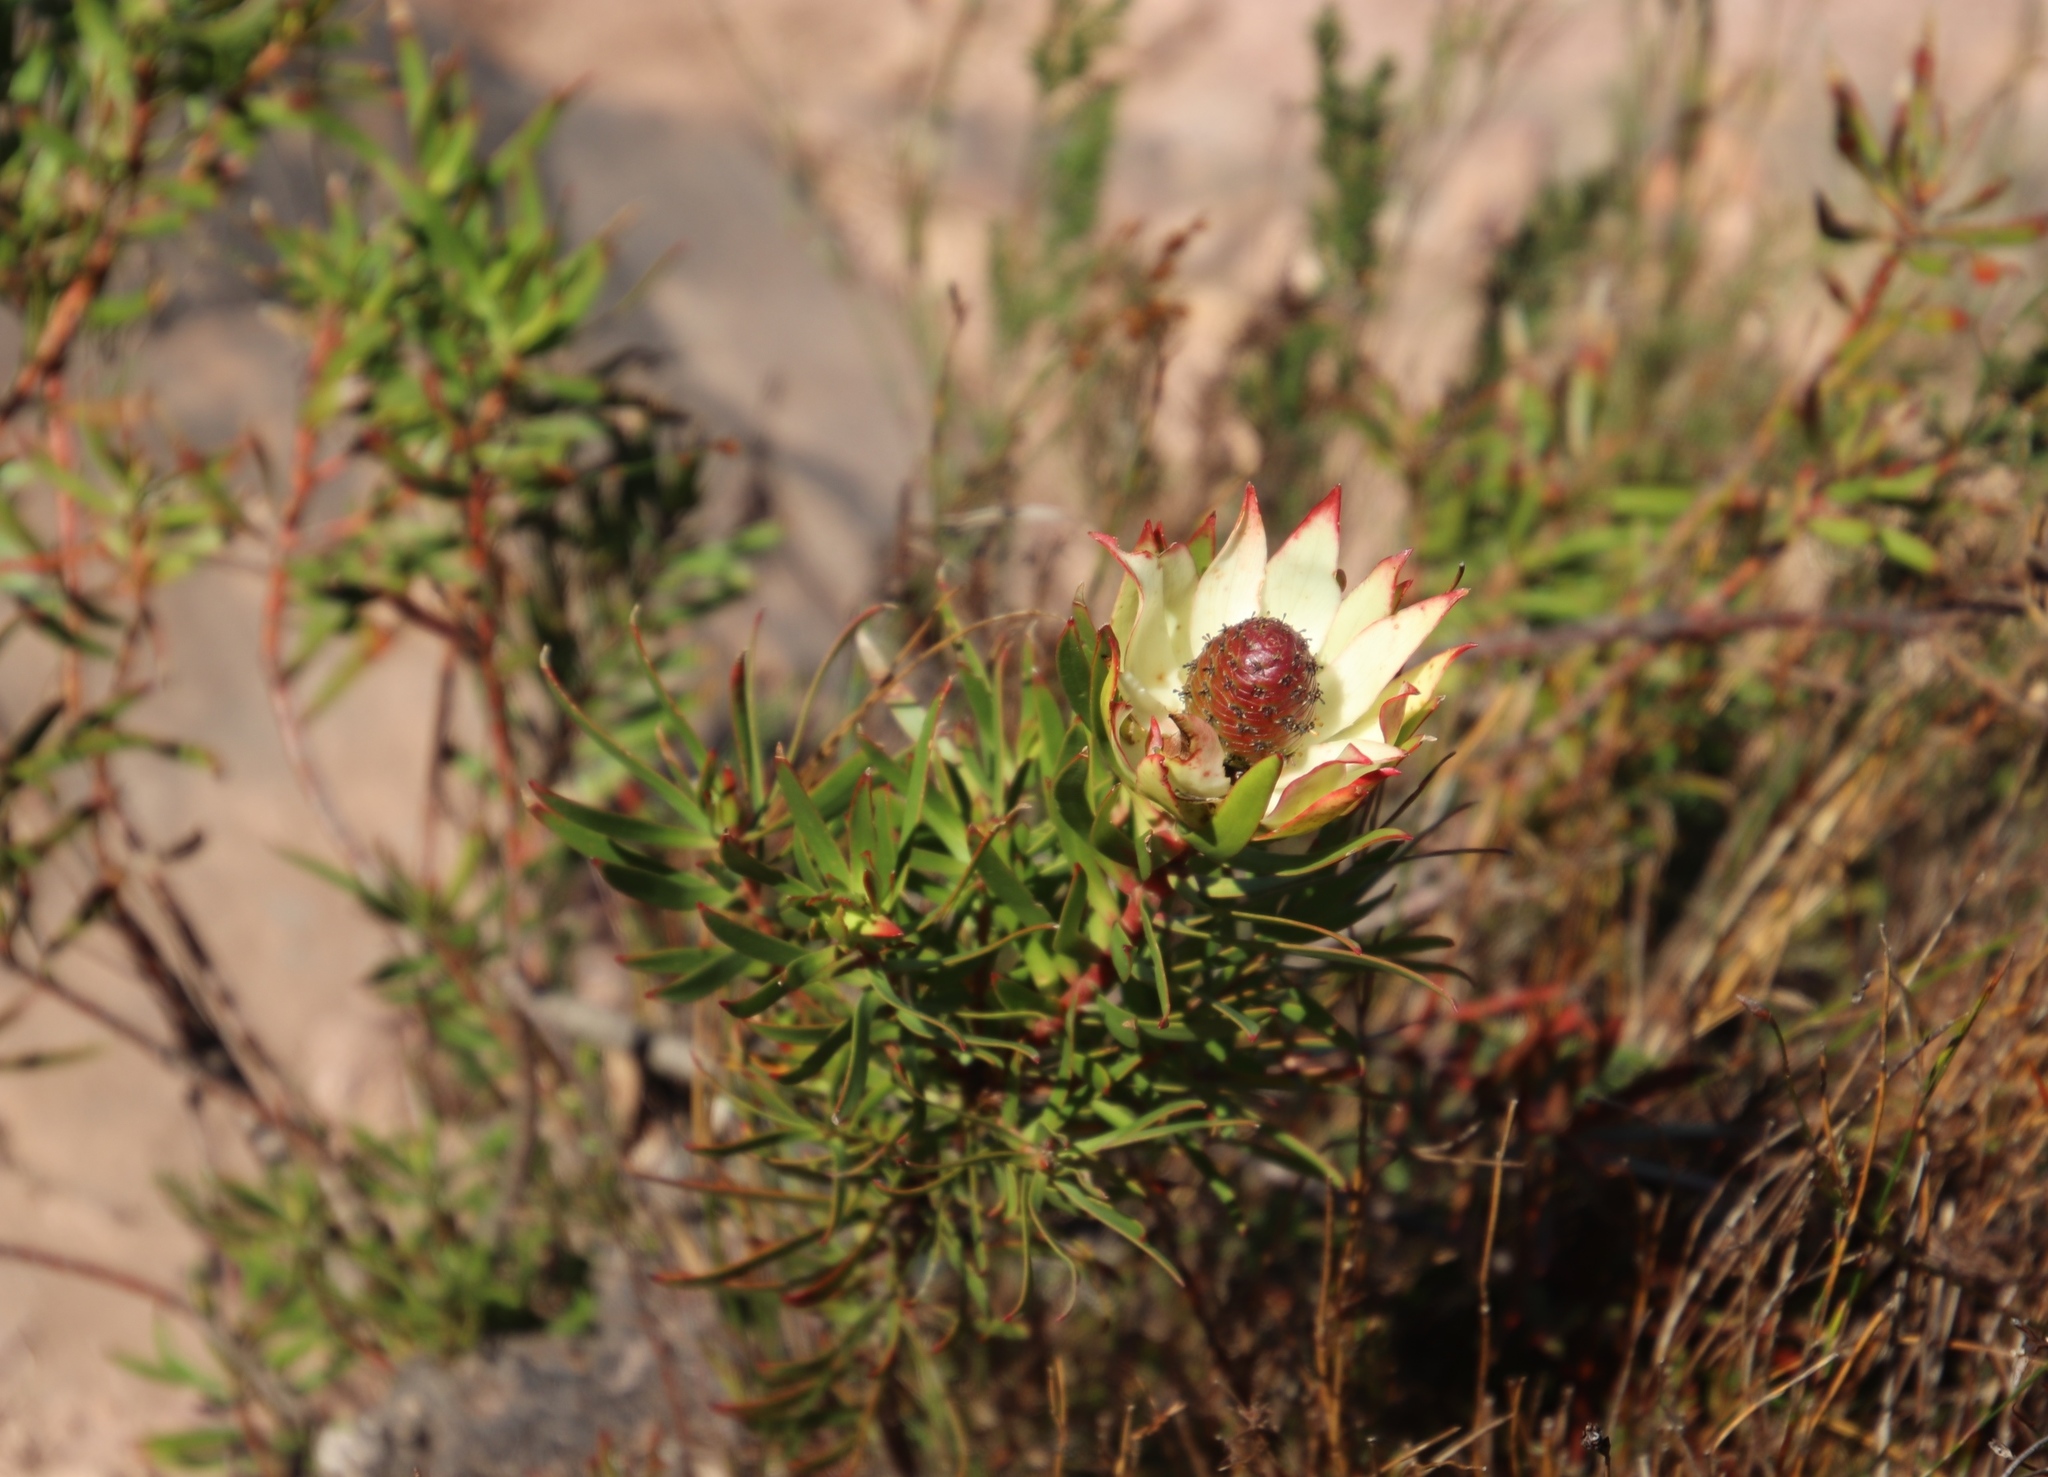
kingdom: Plantae
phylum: Tracheophyta
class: Magnoliopsida
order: Proteales
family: Proteaceae
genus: Leucadendron
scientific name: Leucadendron spissifolium
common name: Spear-leaf conebush
